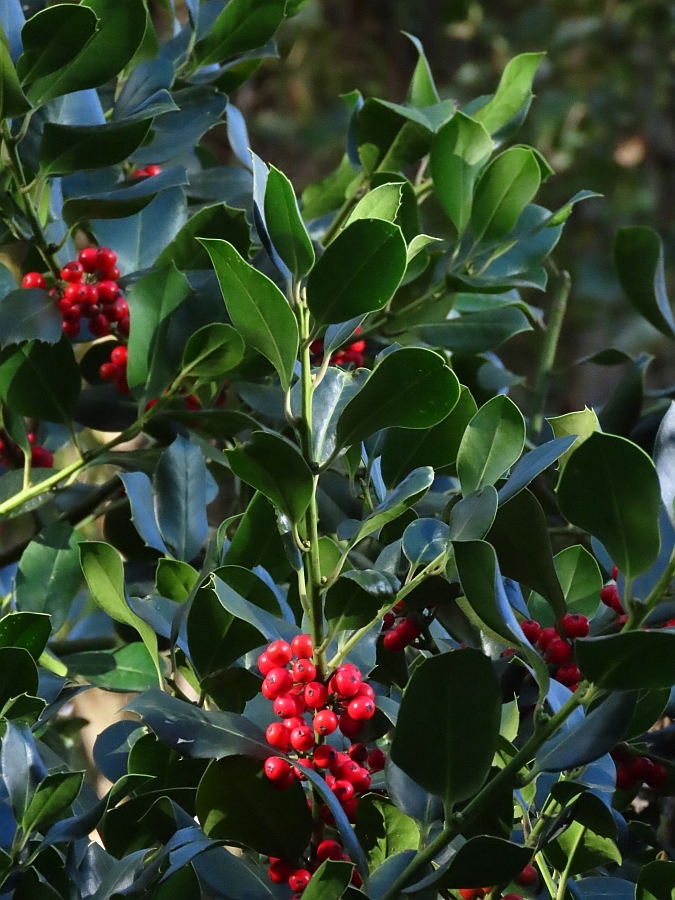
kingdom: Plantae
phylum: Tracheophyta
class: Magnoliopsida
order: Aquifoliales
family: Aquifoliaceae
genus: Ilex
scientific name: Ilex aquifolium
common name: English holly
